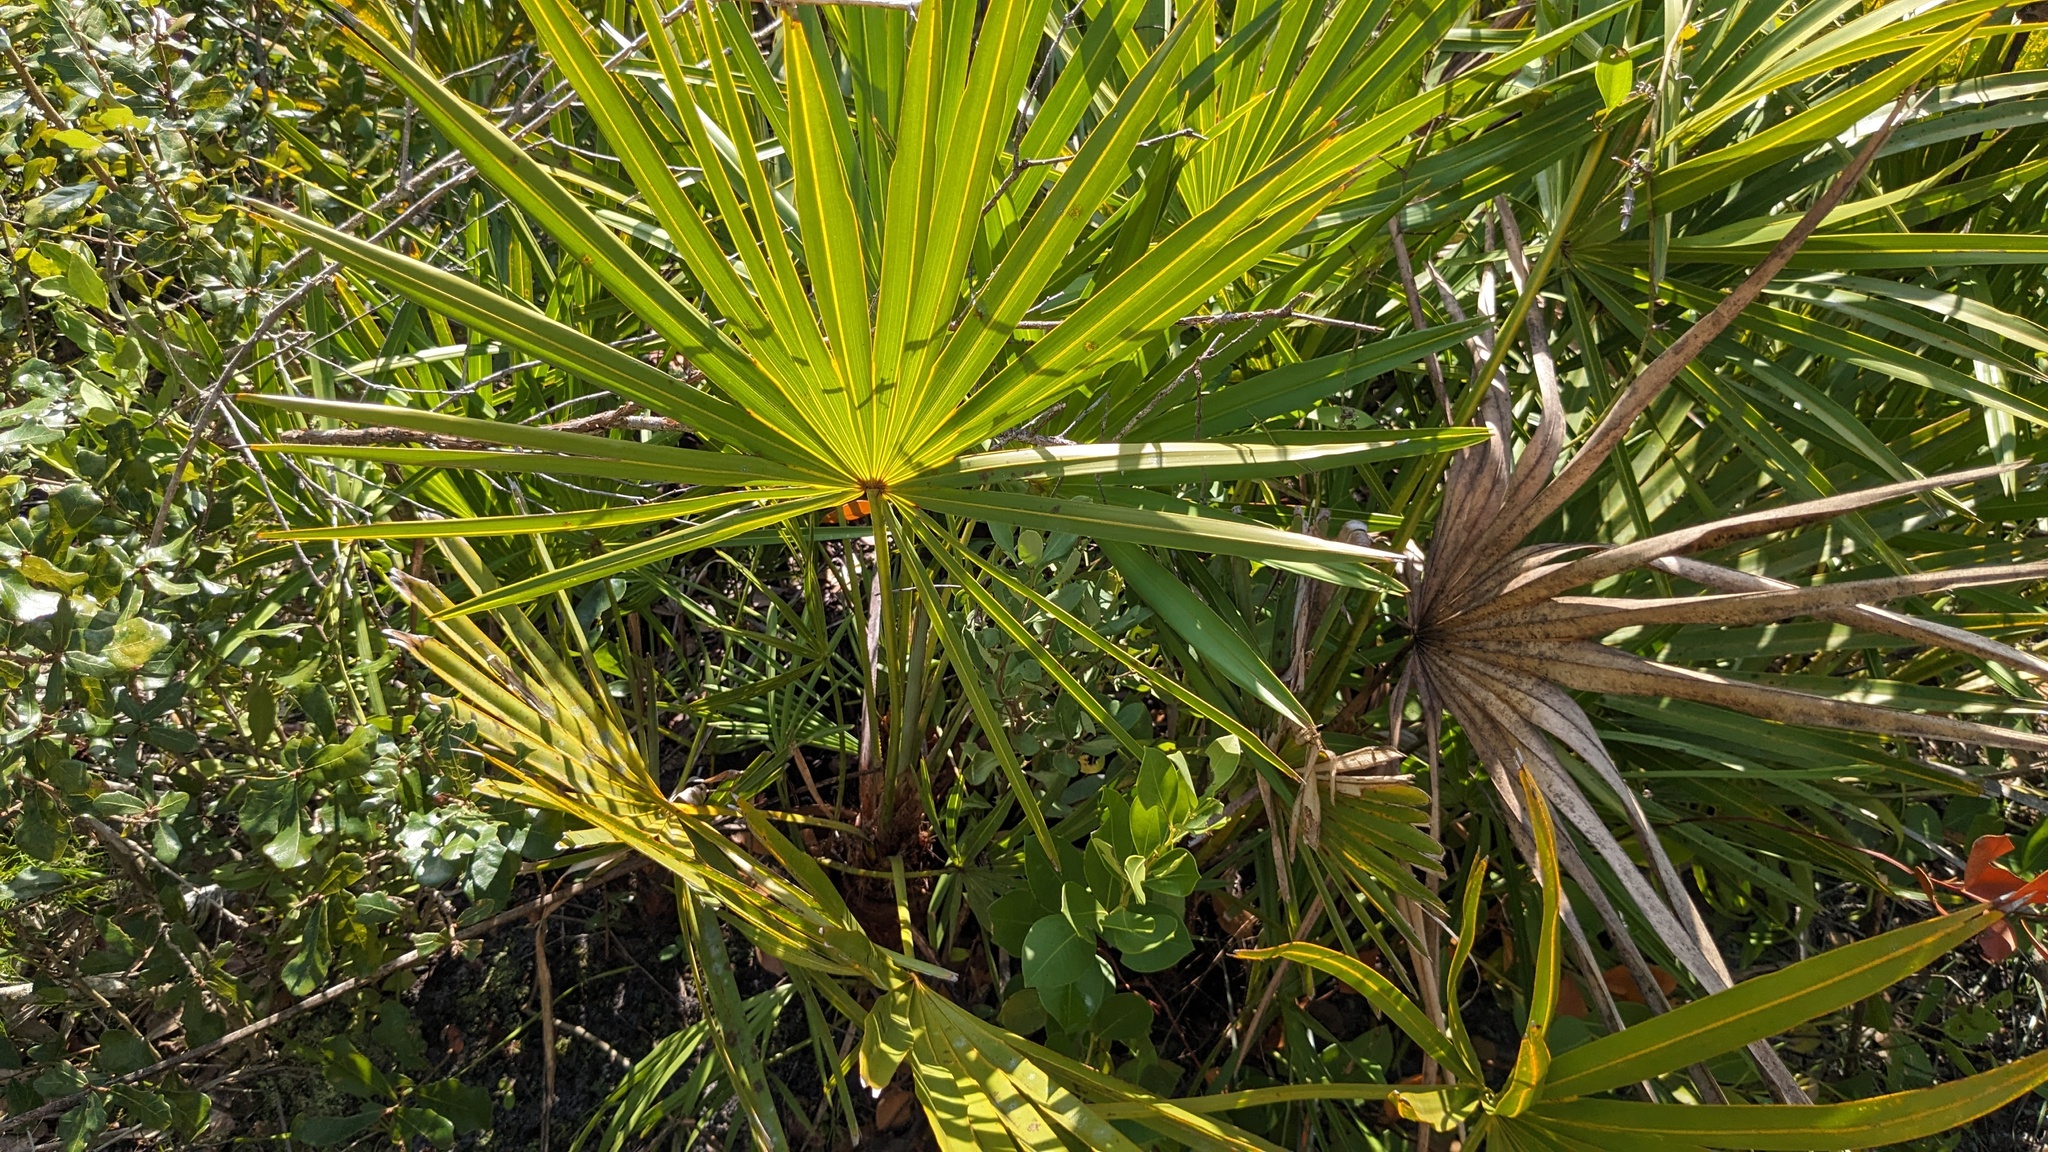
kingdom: Plantae
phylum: Tracheophyta
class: Liliopsida
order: Arecales
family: Arecaceae
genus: Serenoa
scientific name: Serenoa repens
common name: Saw-palmetto
